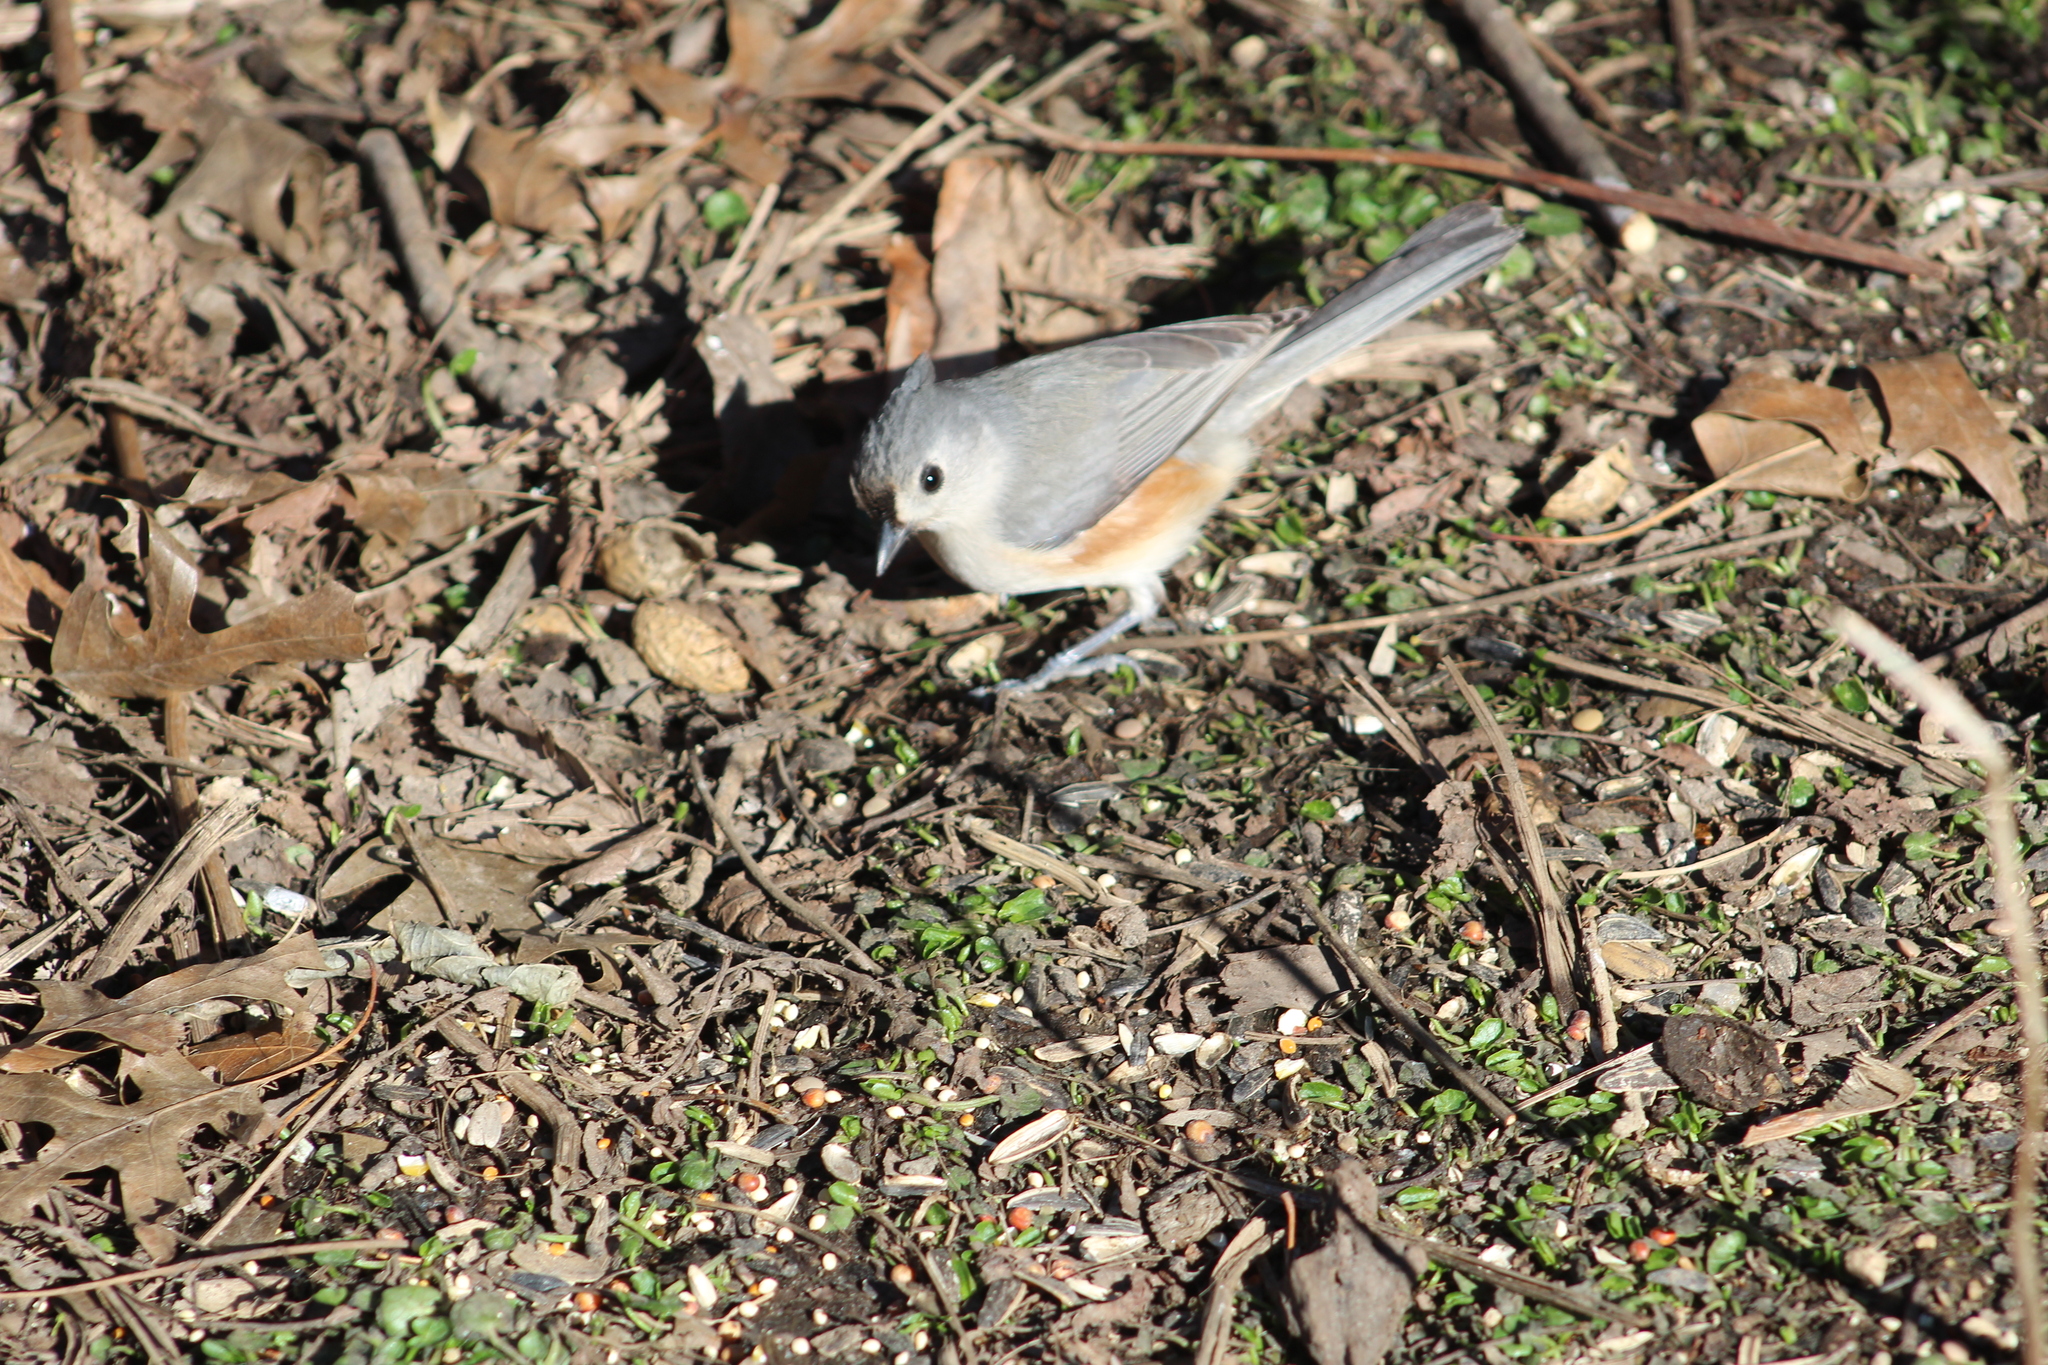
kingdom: Animalia
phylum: Chordata
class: Aves
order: Passeriformes
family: Paridae
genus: Baeolophus
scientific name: Baeolophus bicolor
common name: Tufted titmouse
